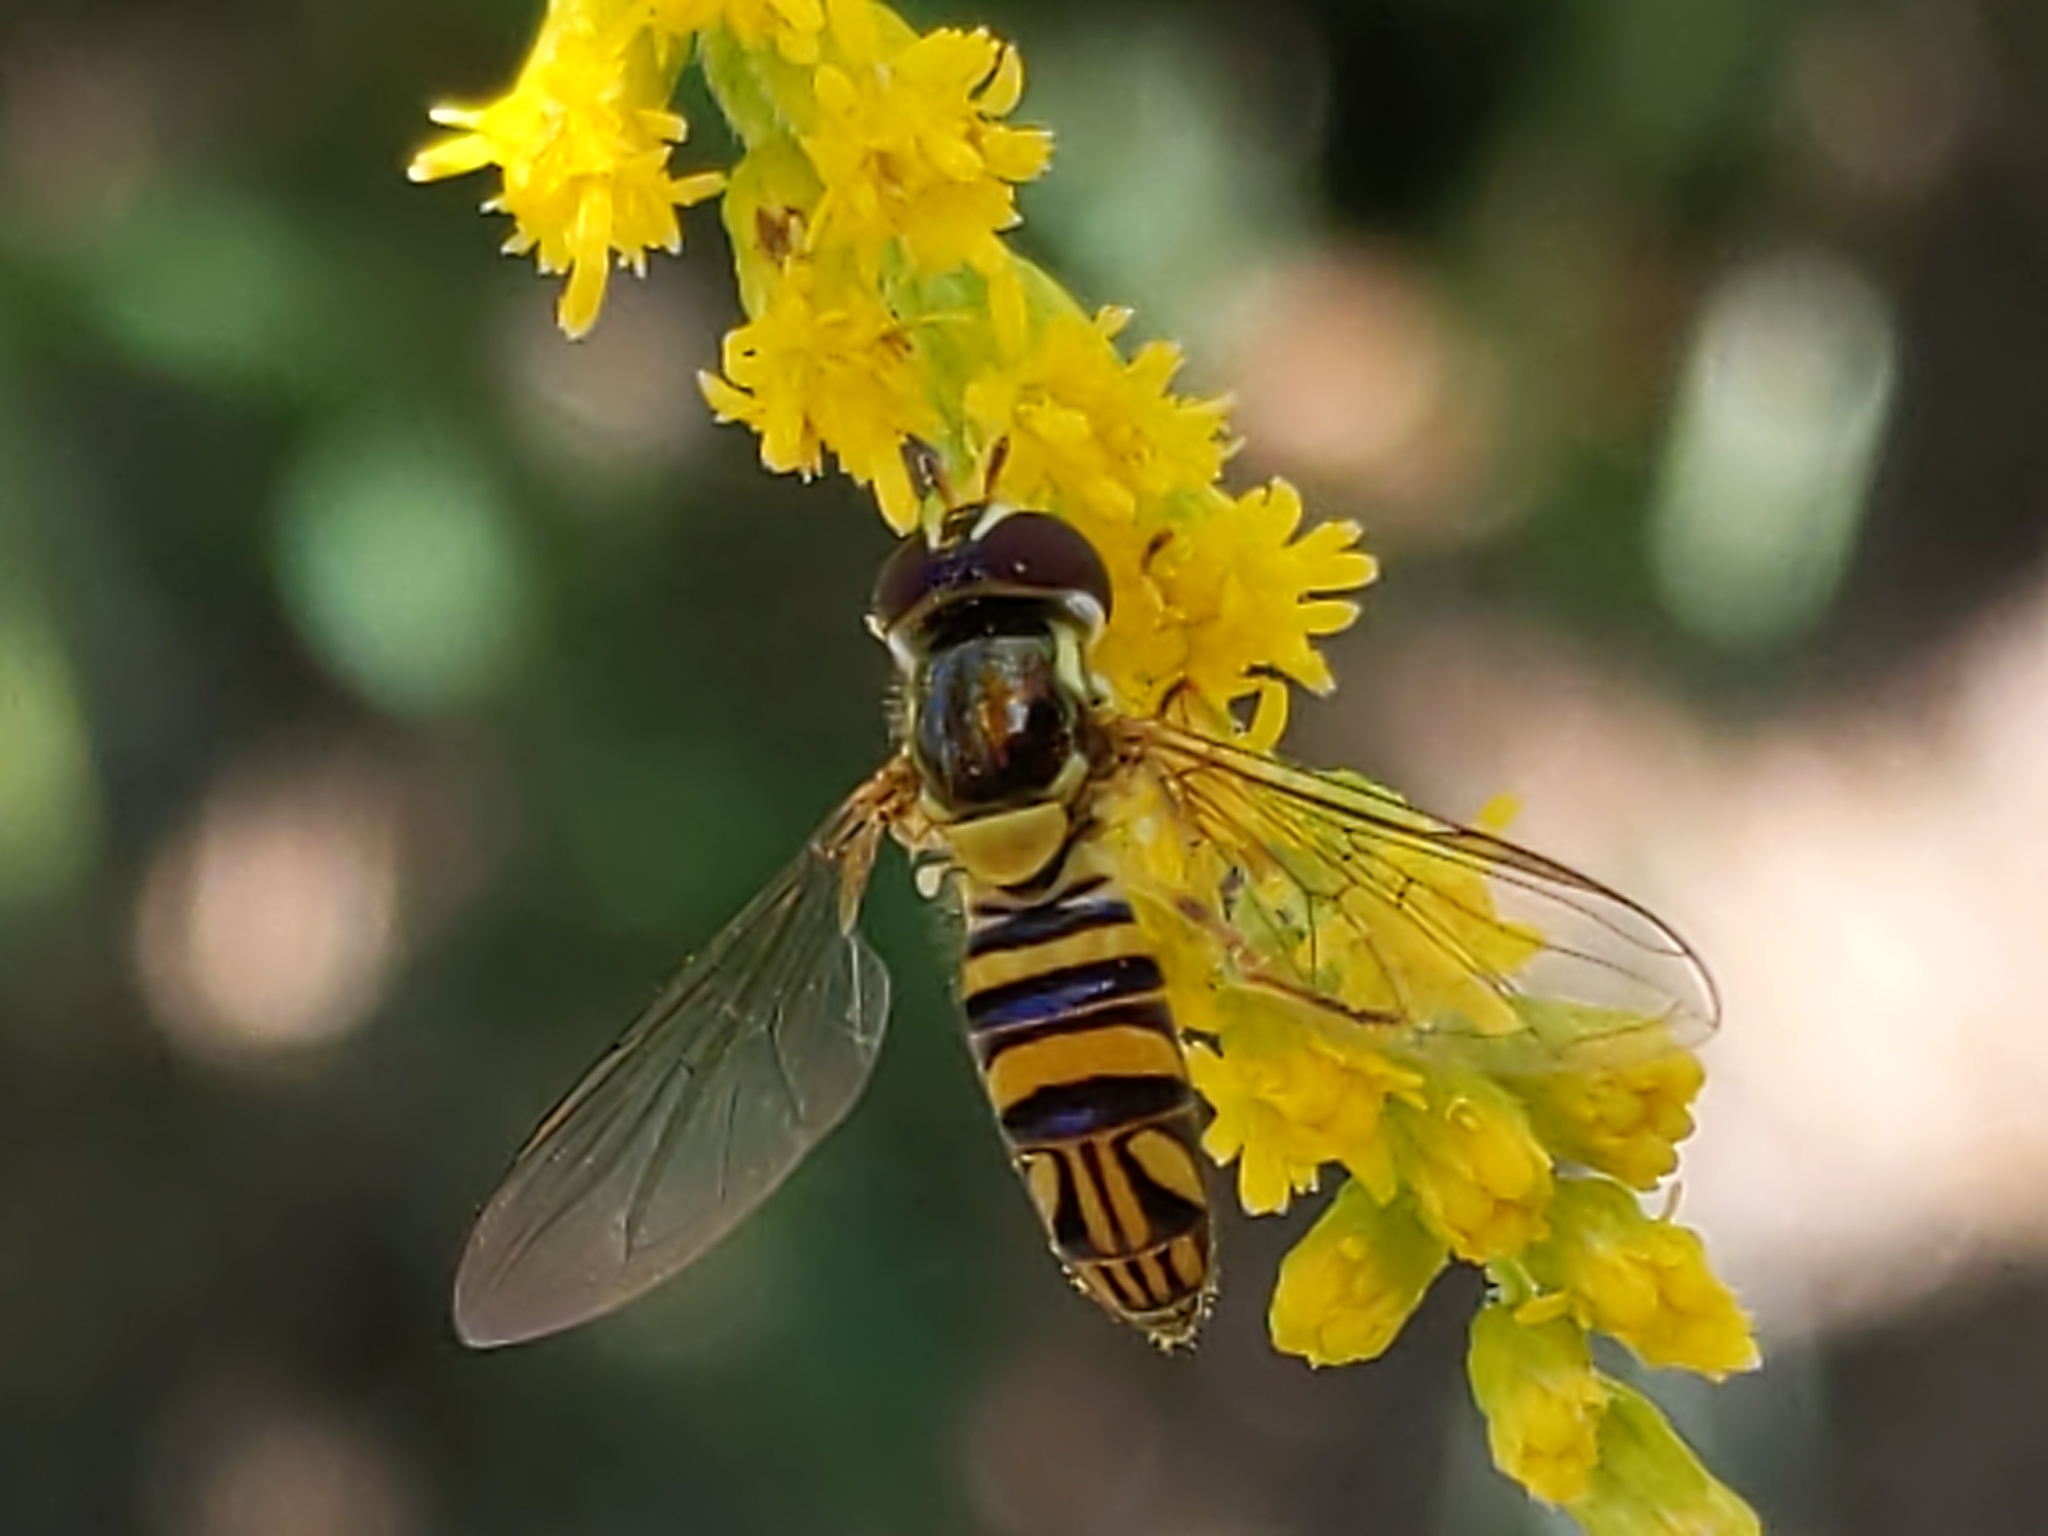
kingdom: Animalia
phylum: Arthropoda
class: Insecta
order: Diptera
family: Syrphidae
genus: Allograpta
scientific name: Allograpta obliqua
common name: Common oblique syrphid
